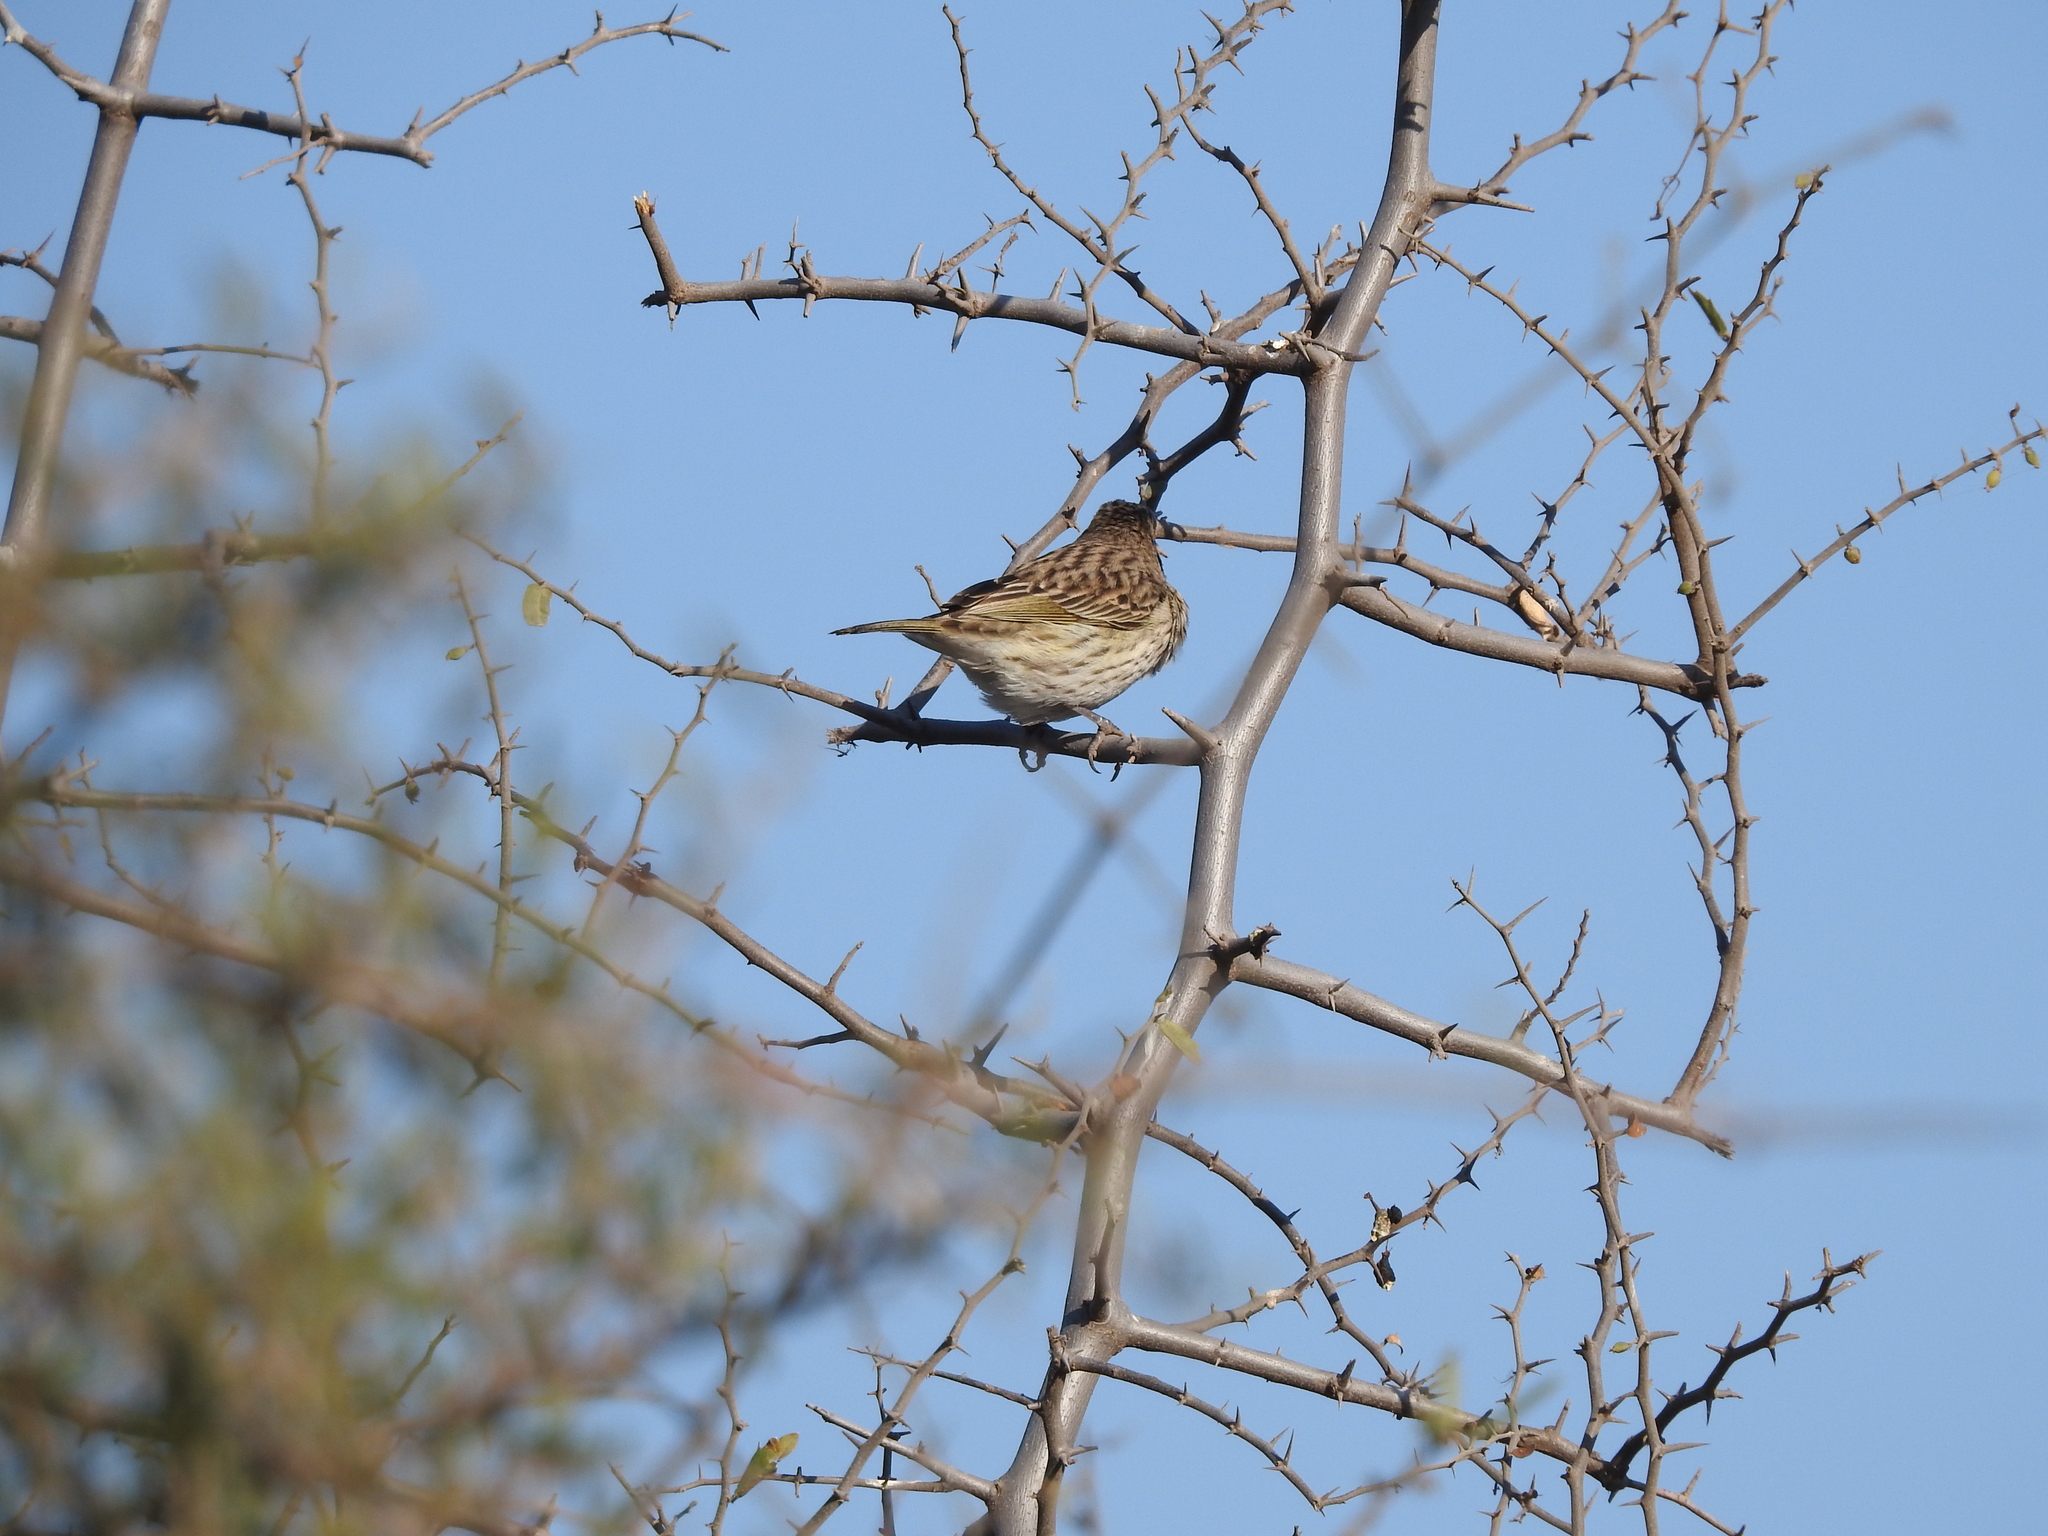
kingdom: Animalia
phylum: Chordata
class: Aves
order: Passeriformes
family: Thraupidae
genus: Sicalis
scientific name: Sicalis flaveola
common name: Saffron finch
